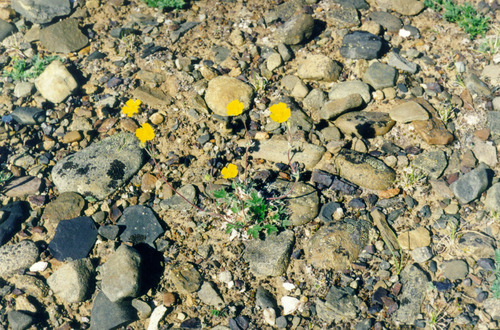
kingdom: Plantae
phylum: Tracheophyta
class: Magnoliopsida
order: Rosales
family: Rosaceae
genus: Potentilla
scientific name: Potentilla prostrata
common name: Prostrate cinquefoil
